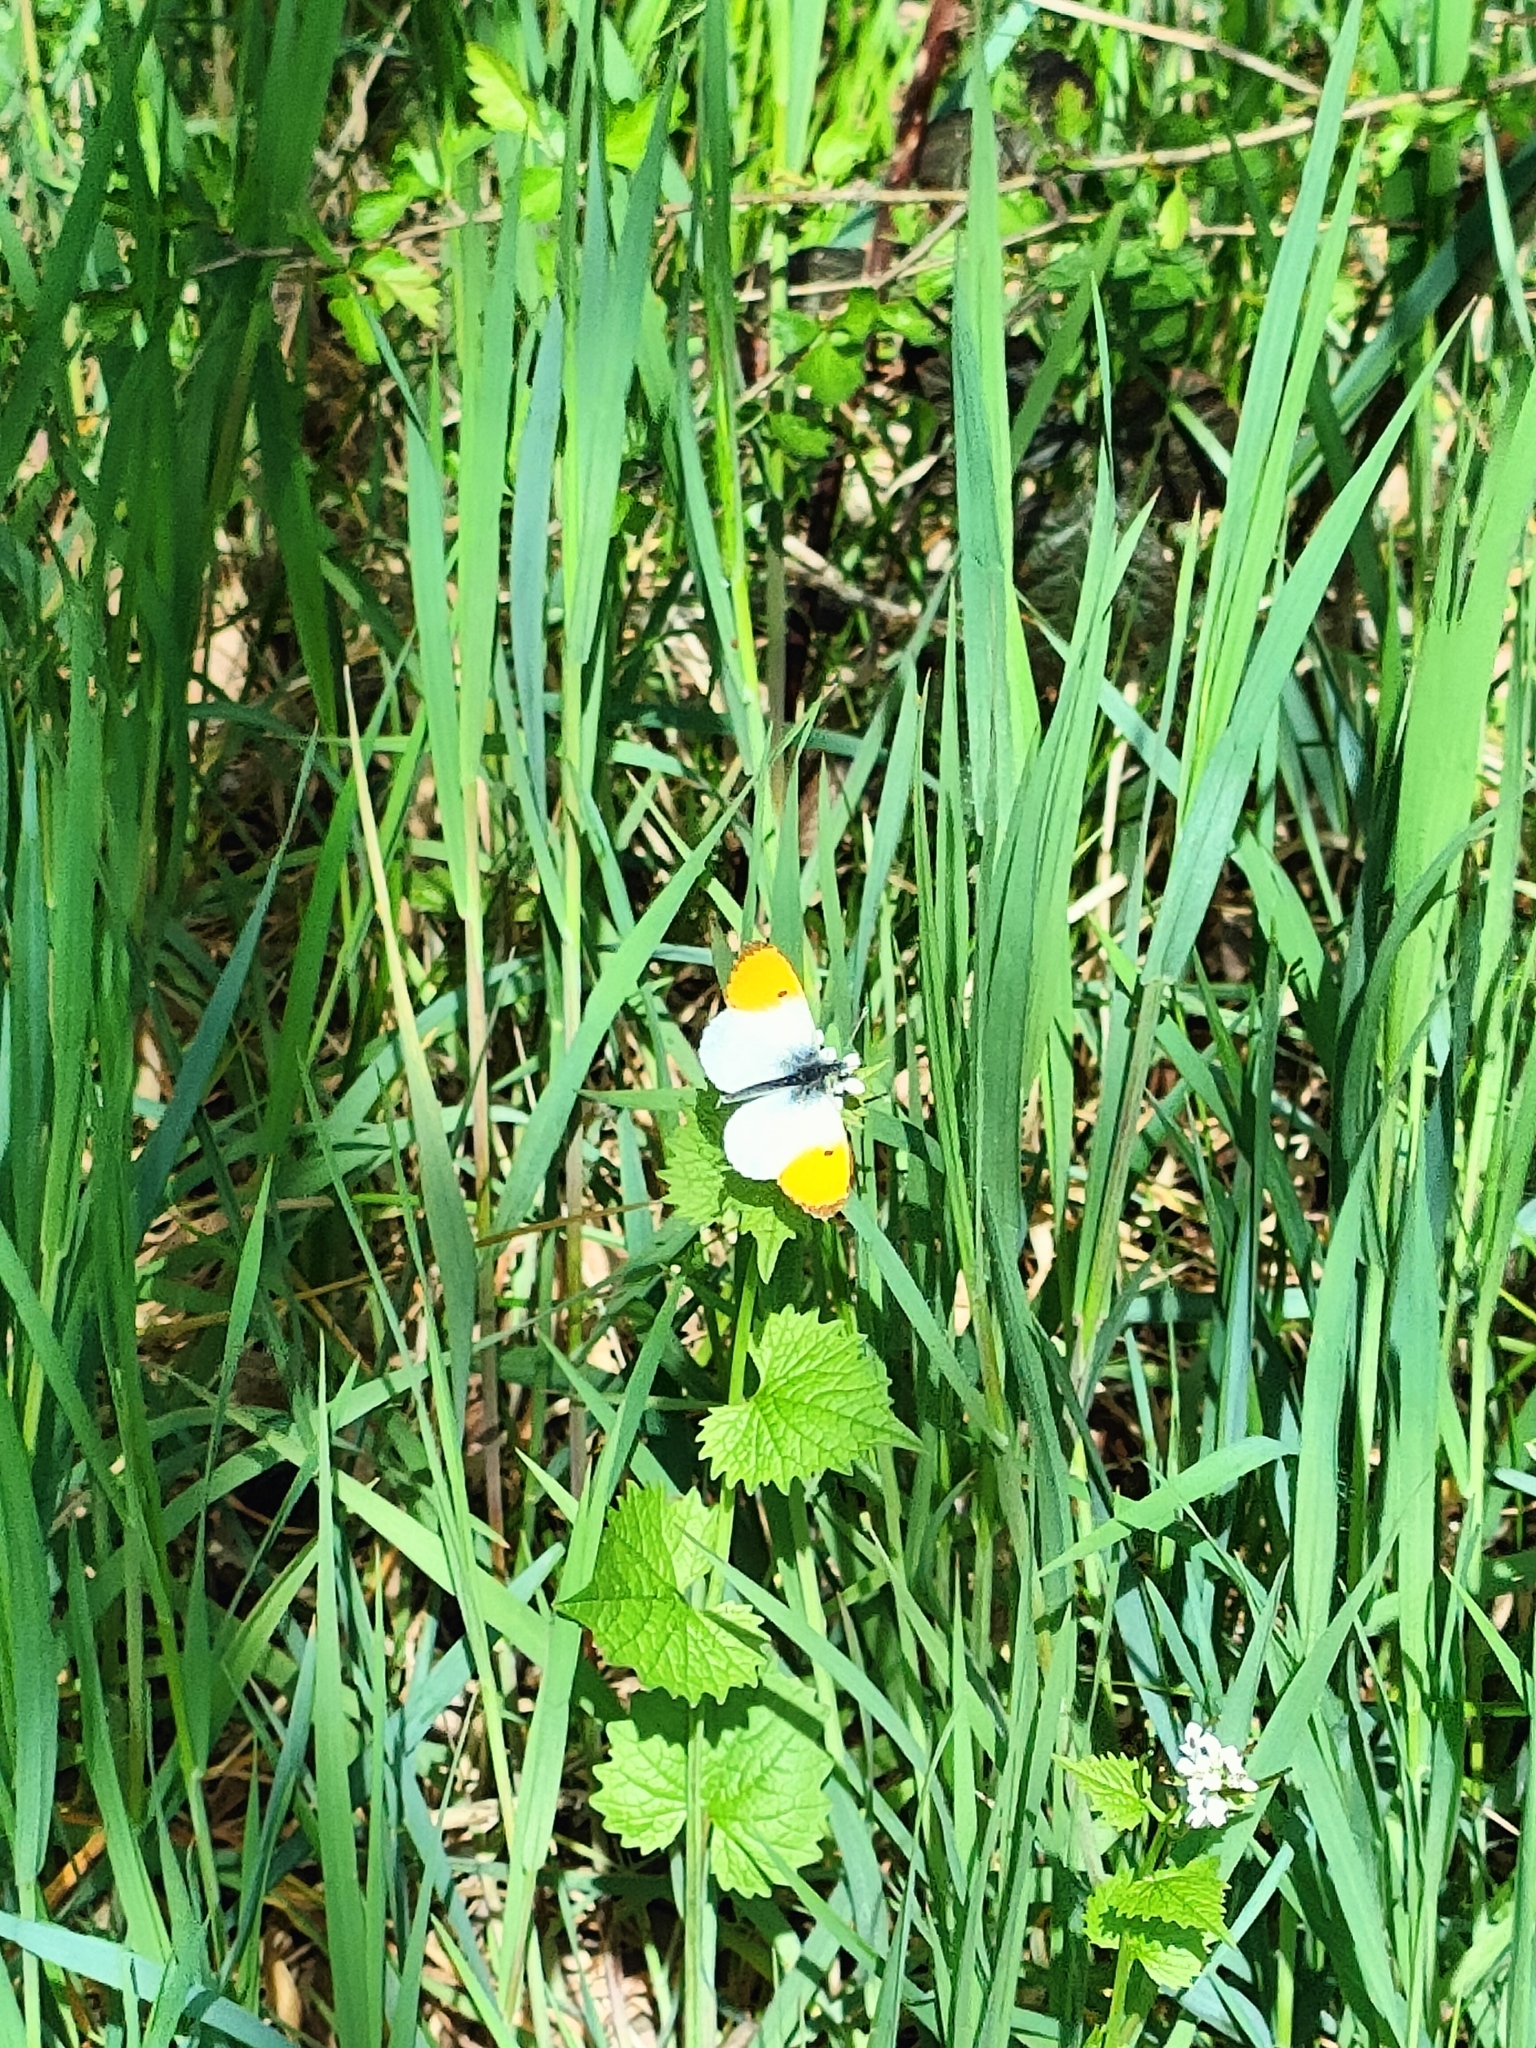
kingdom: Animalia
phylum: Arthropoda
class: Insecta
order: Lepidoptera
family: Pieridae
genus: Anthocharis
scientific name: Anthocharis cardamines
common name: Orange-tip
